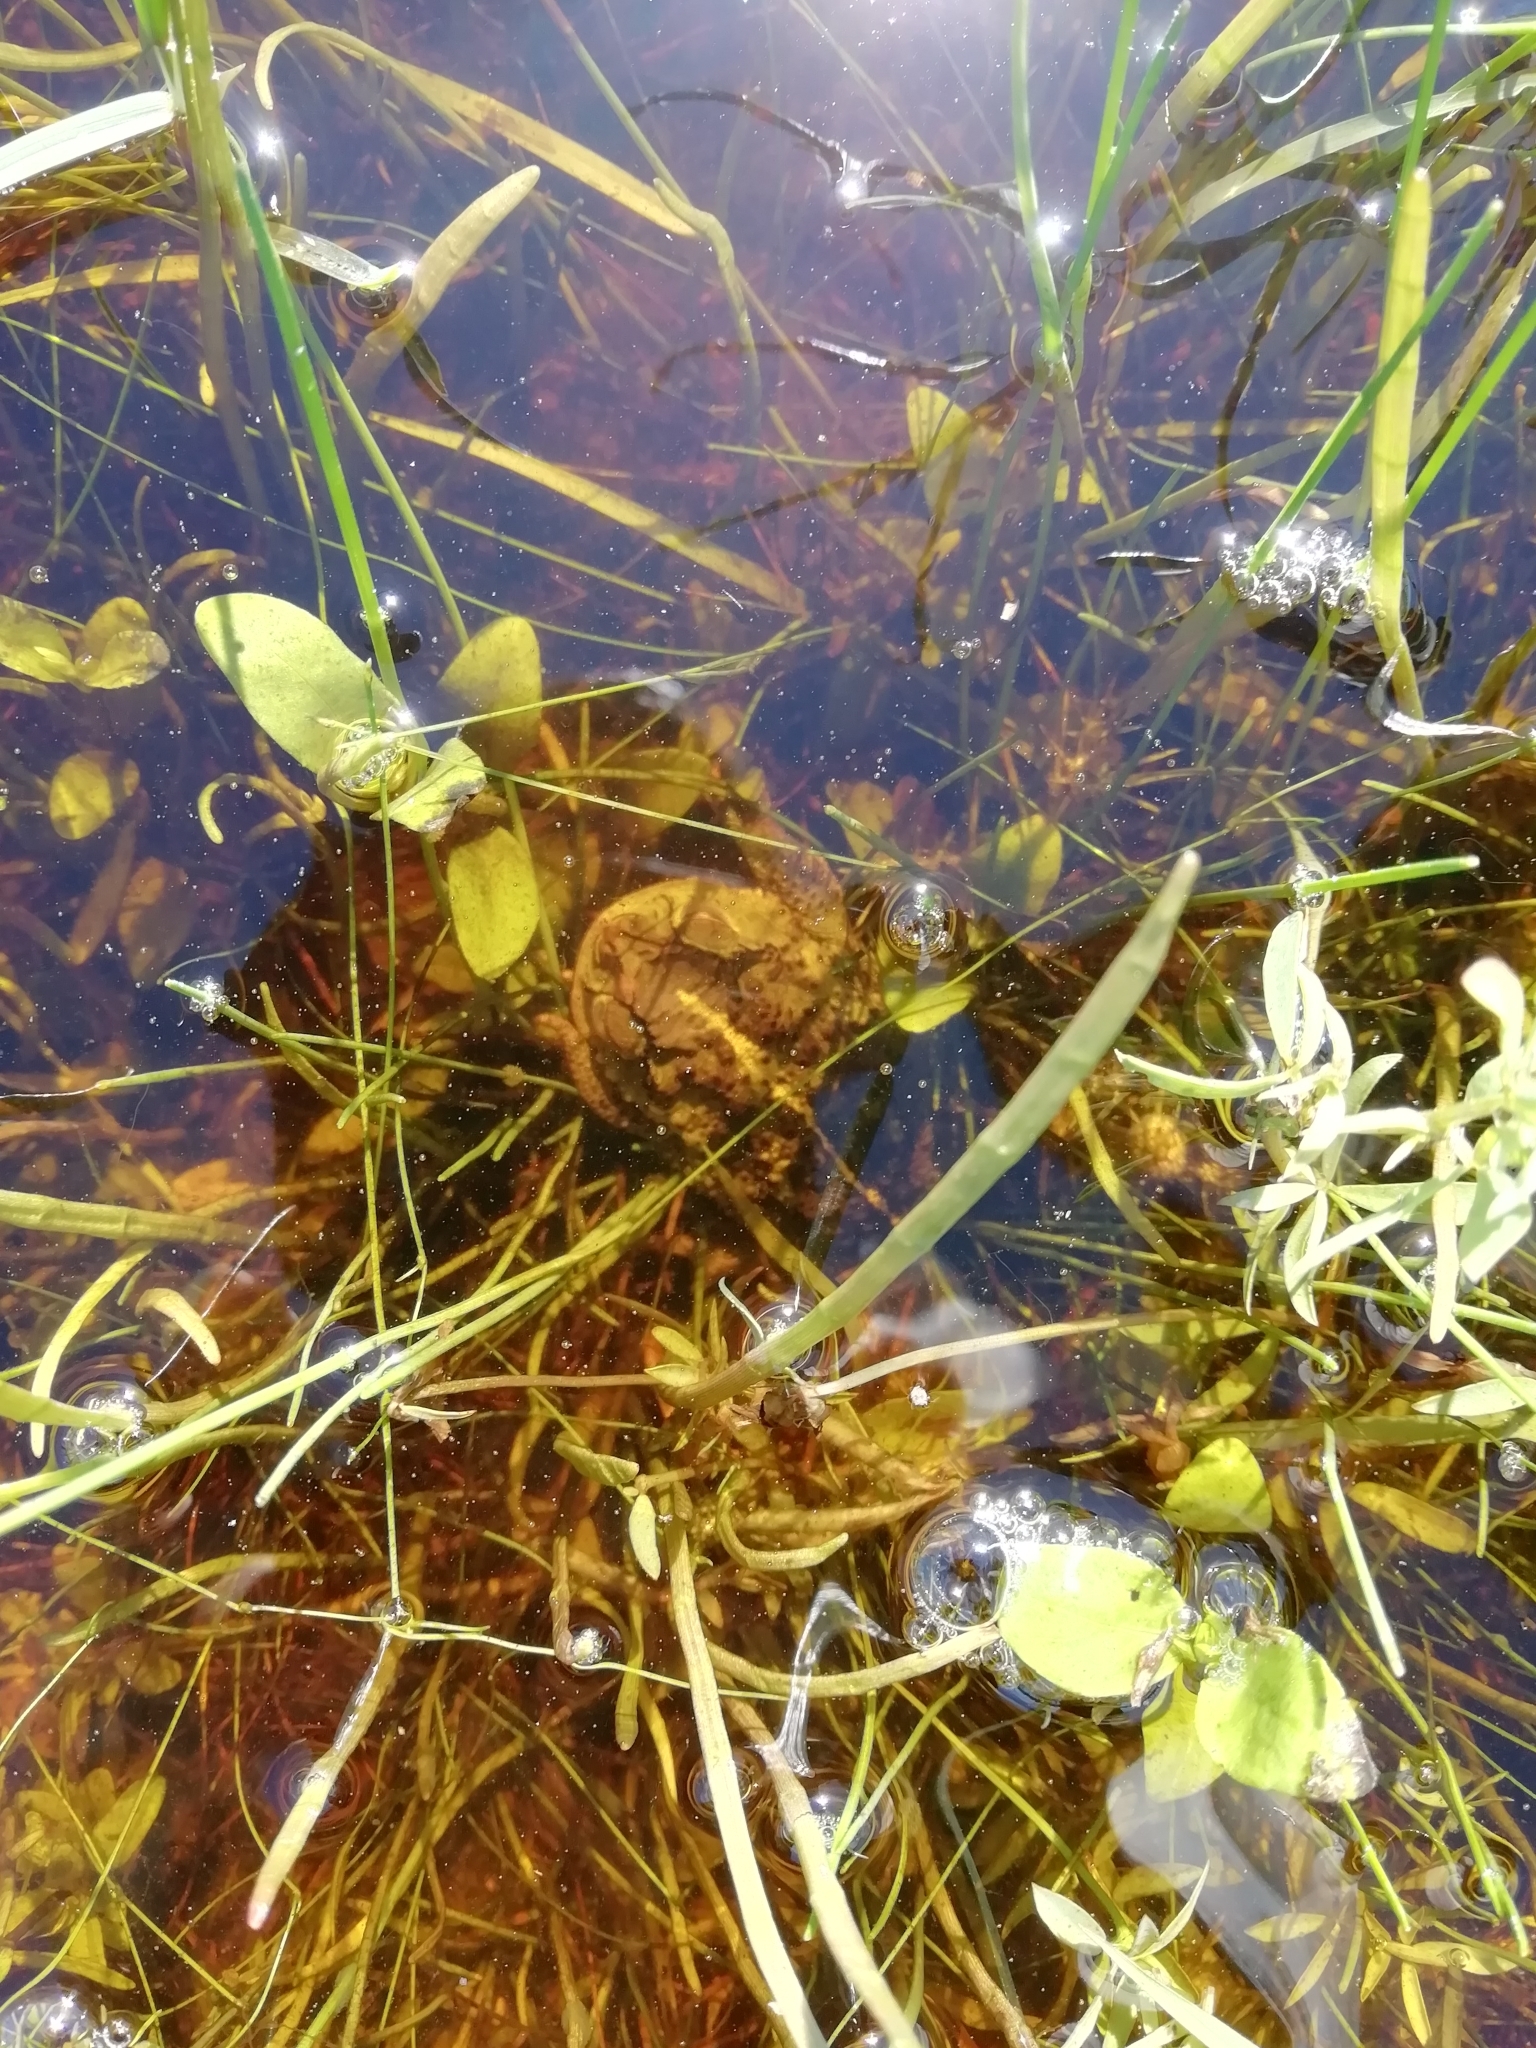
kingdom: Animalia
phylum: Chordata
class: Amphibia
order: Anura
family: Bufonidae
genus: Rhinella
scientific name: Rhinella dorbignyi
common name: D´orbigny’s toad
